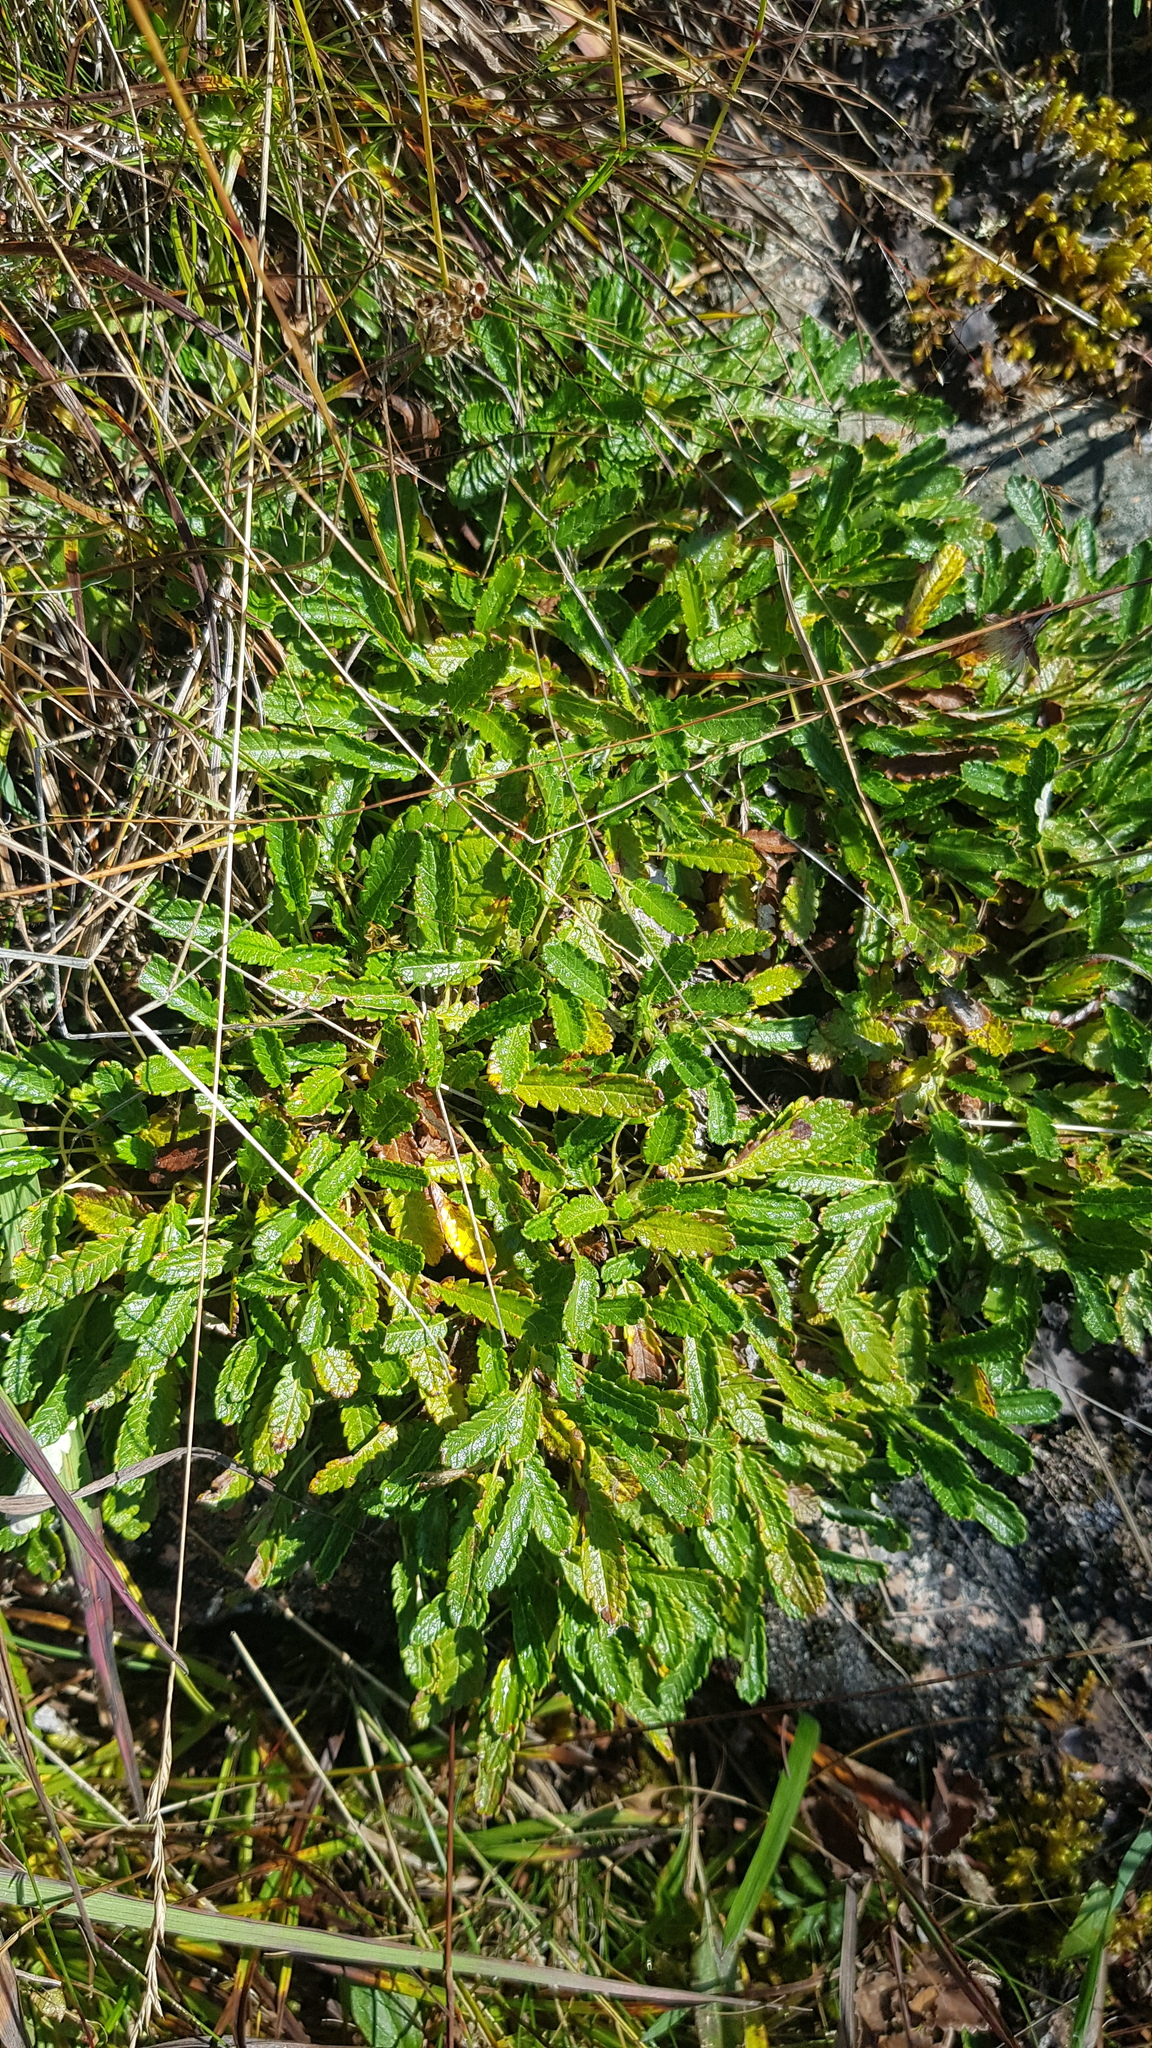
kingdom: Plantae
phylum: Tracheophyta
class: Magnoliopsida
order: Rosales
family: Rosaceae
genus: Dryas
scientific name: Dryas octopetala
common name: Eight-petal mountain-avens
